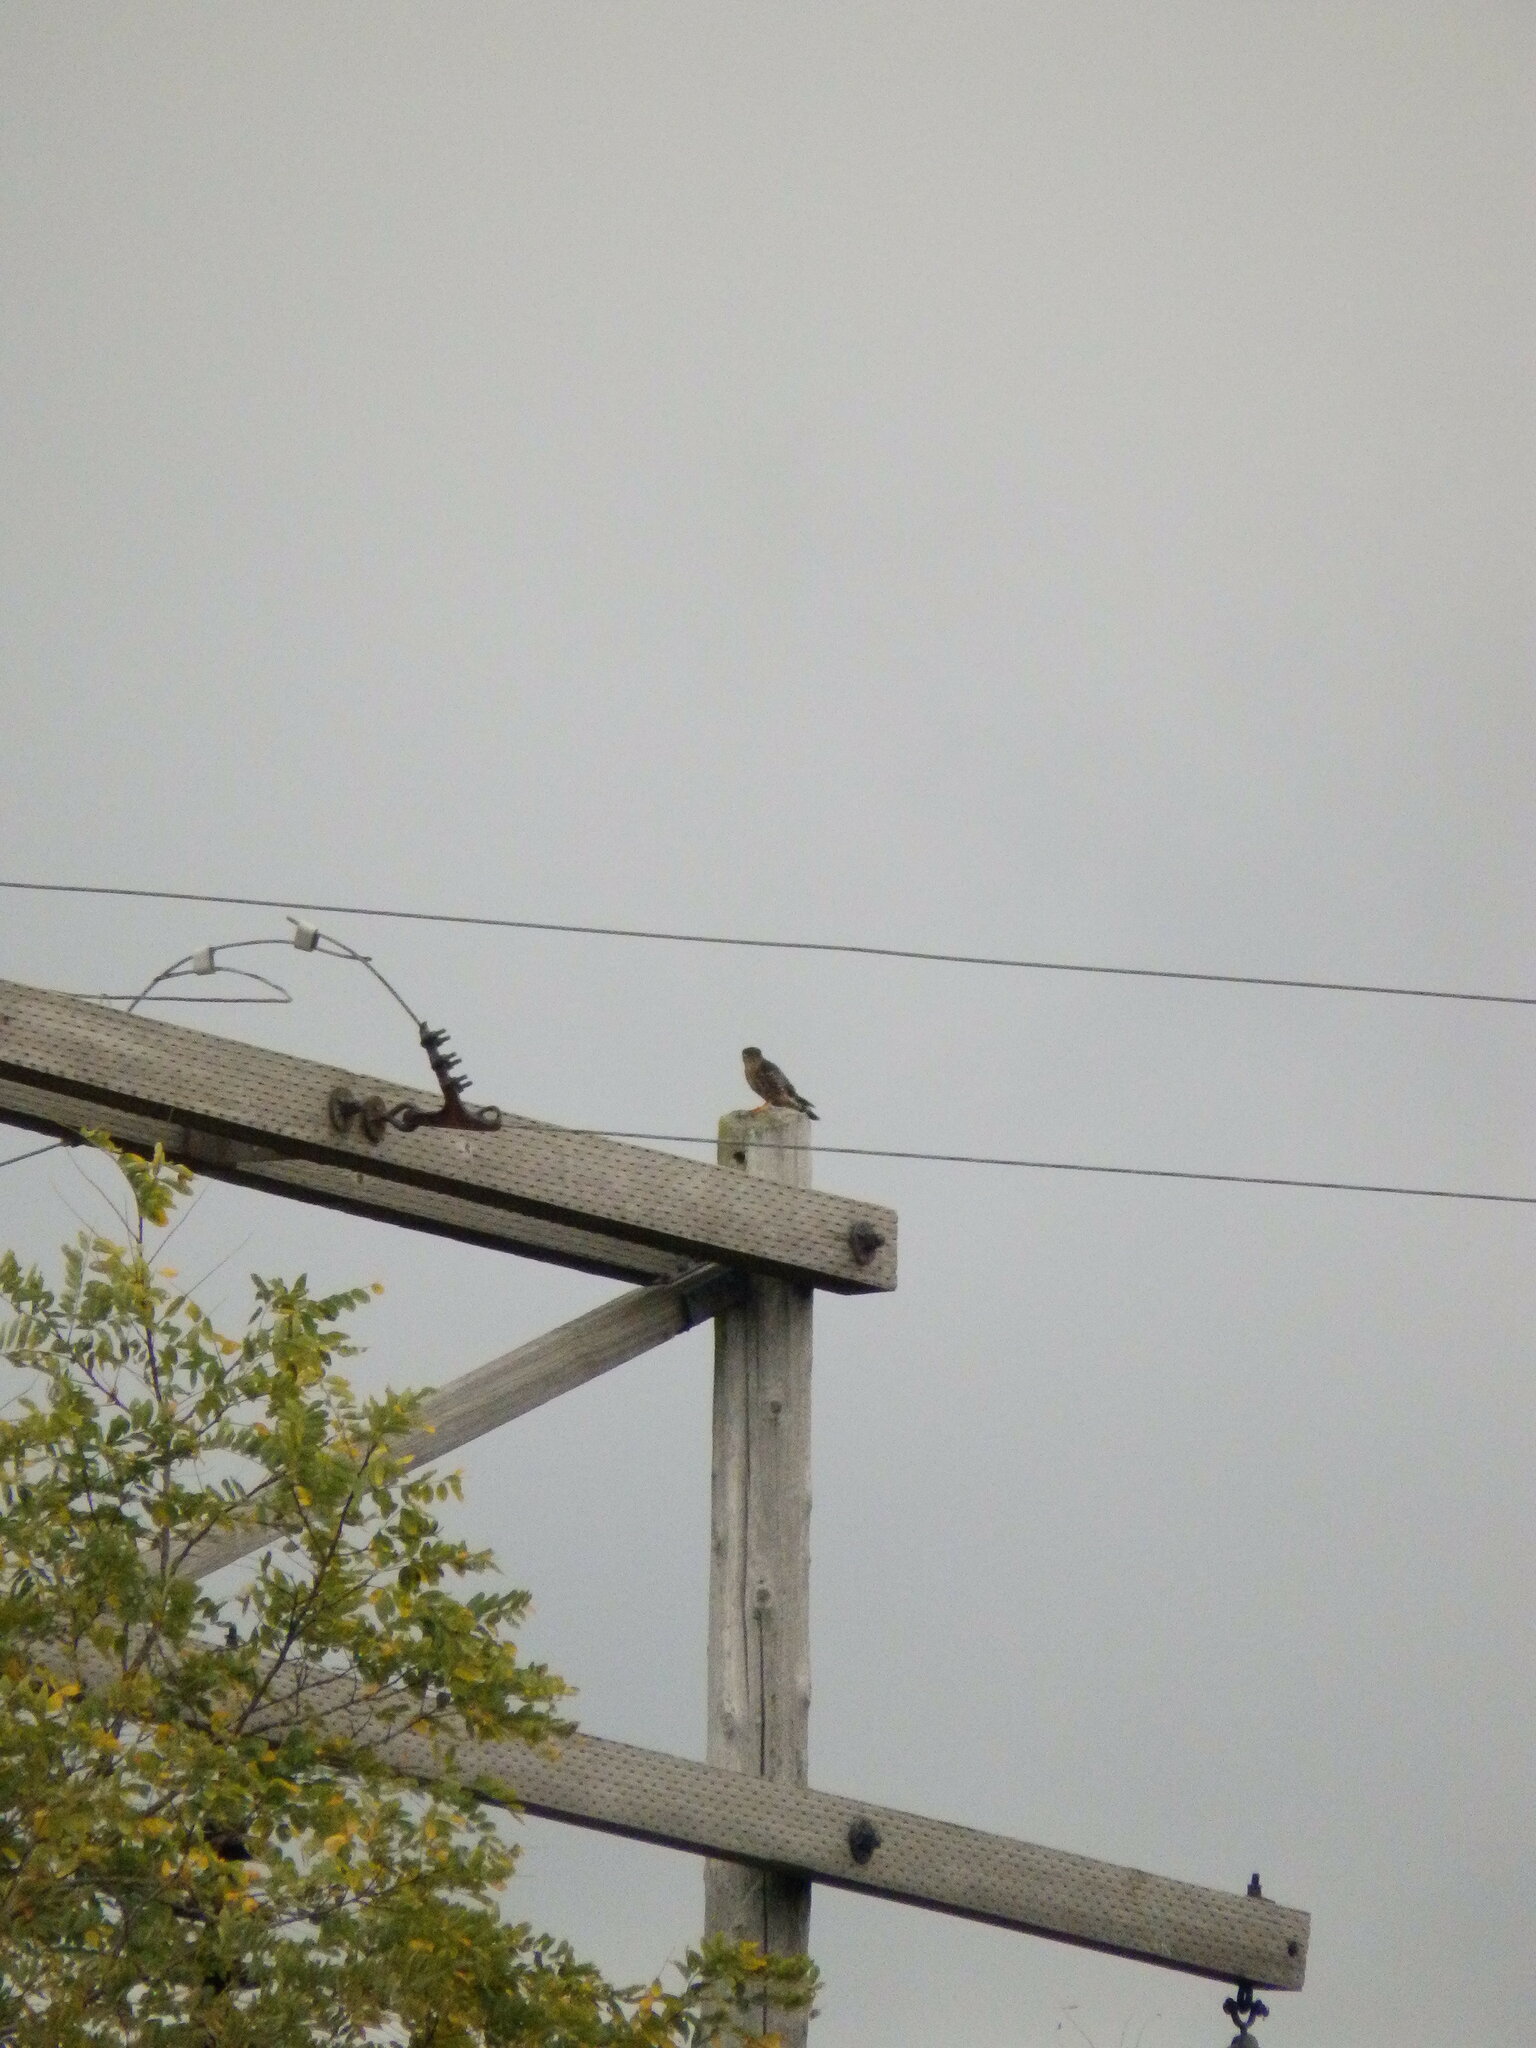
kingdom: Animalia
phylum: Chordata
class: Aves
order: Falconiformes
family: Falconidae
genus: Falco
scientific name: Falco columbarius
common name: Merlin
